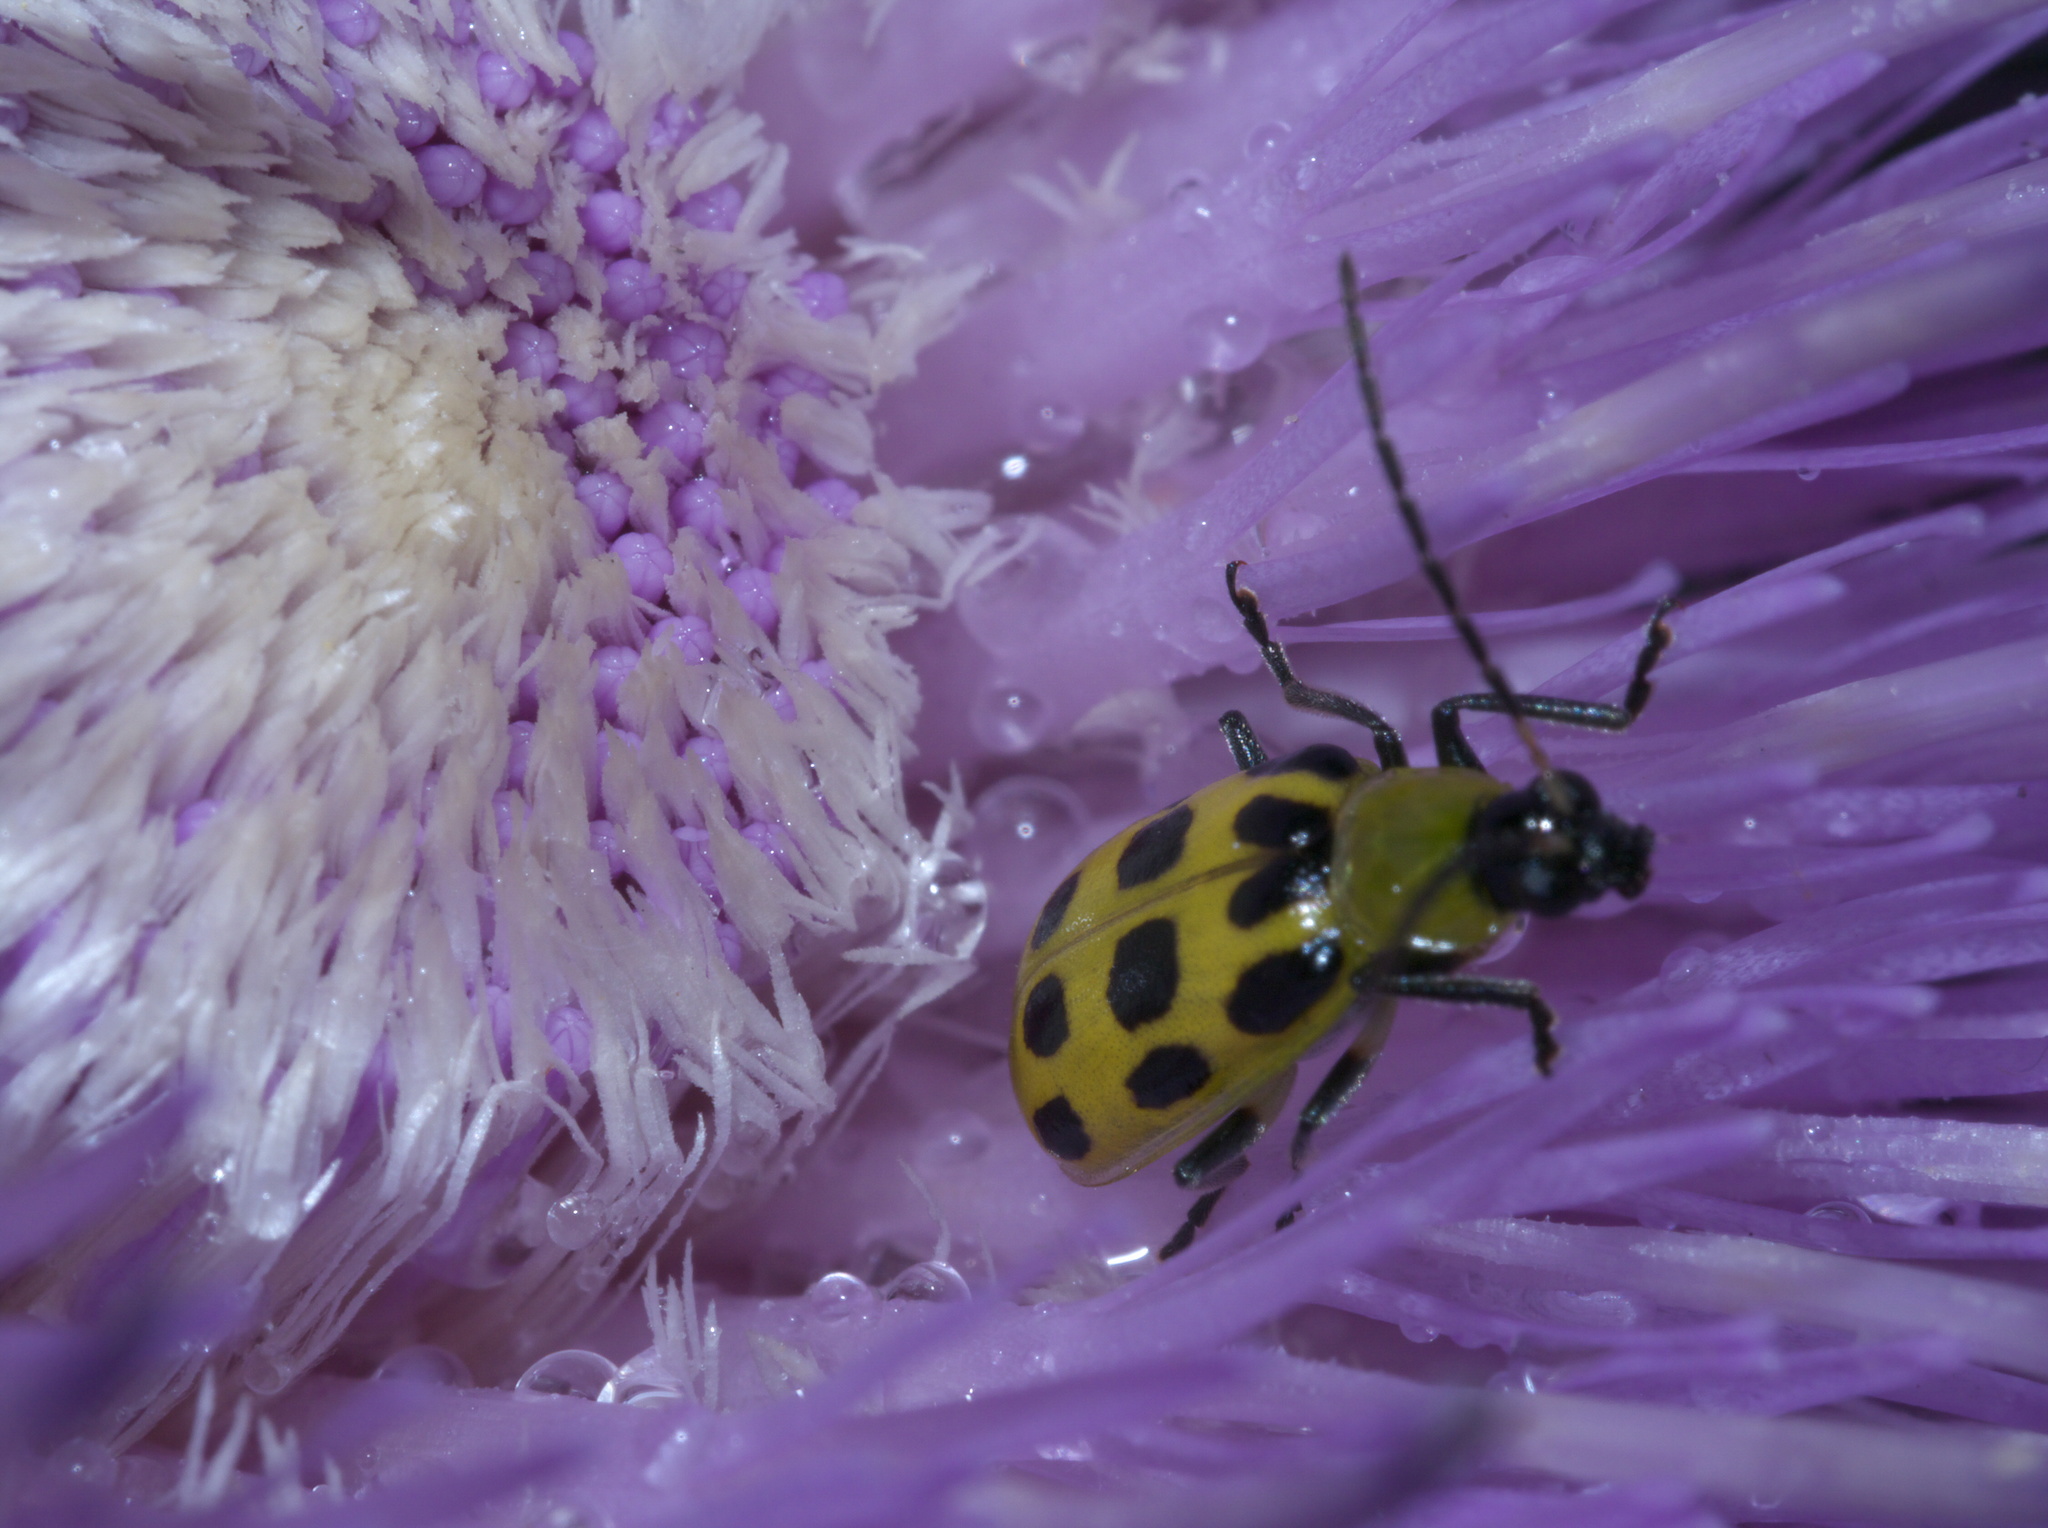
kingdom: Animalia
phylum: Arthropoda
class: Insecta
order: Coleoptera
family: Chrysomelidae
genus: Diabrotica
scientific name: Diabrotica undecimpunctata
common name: Spotted cucumber beetle
